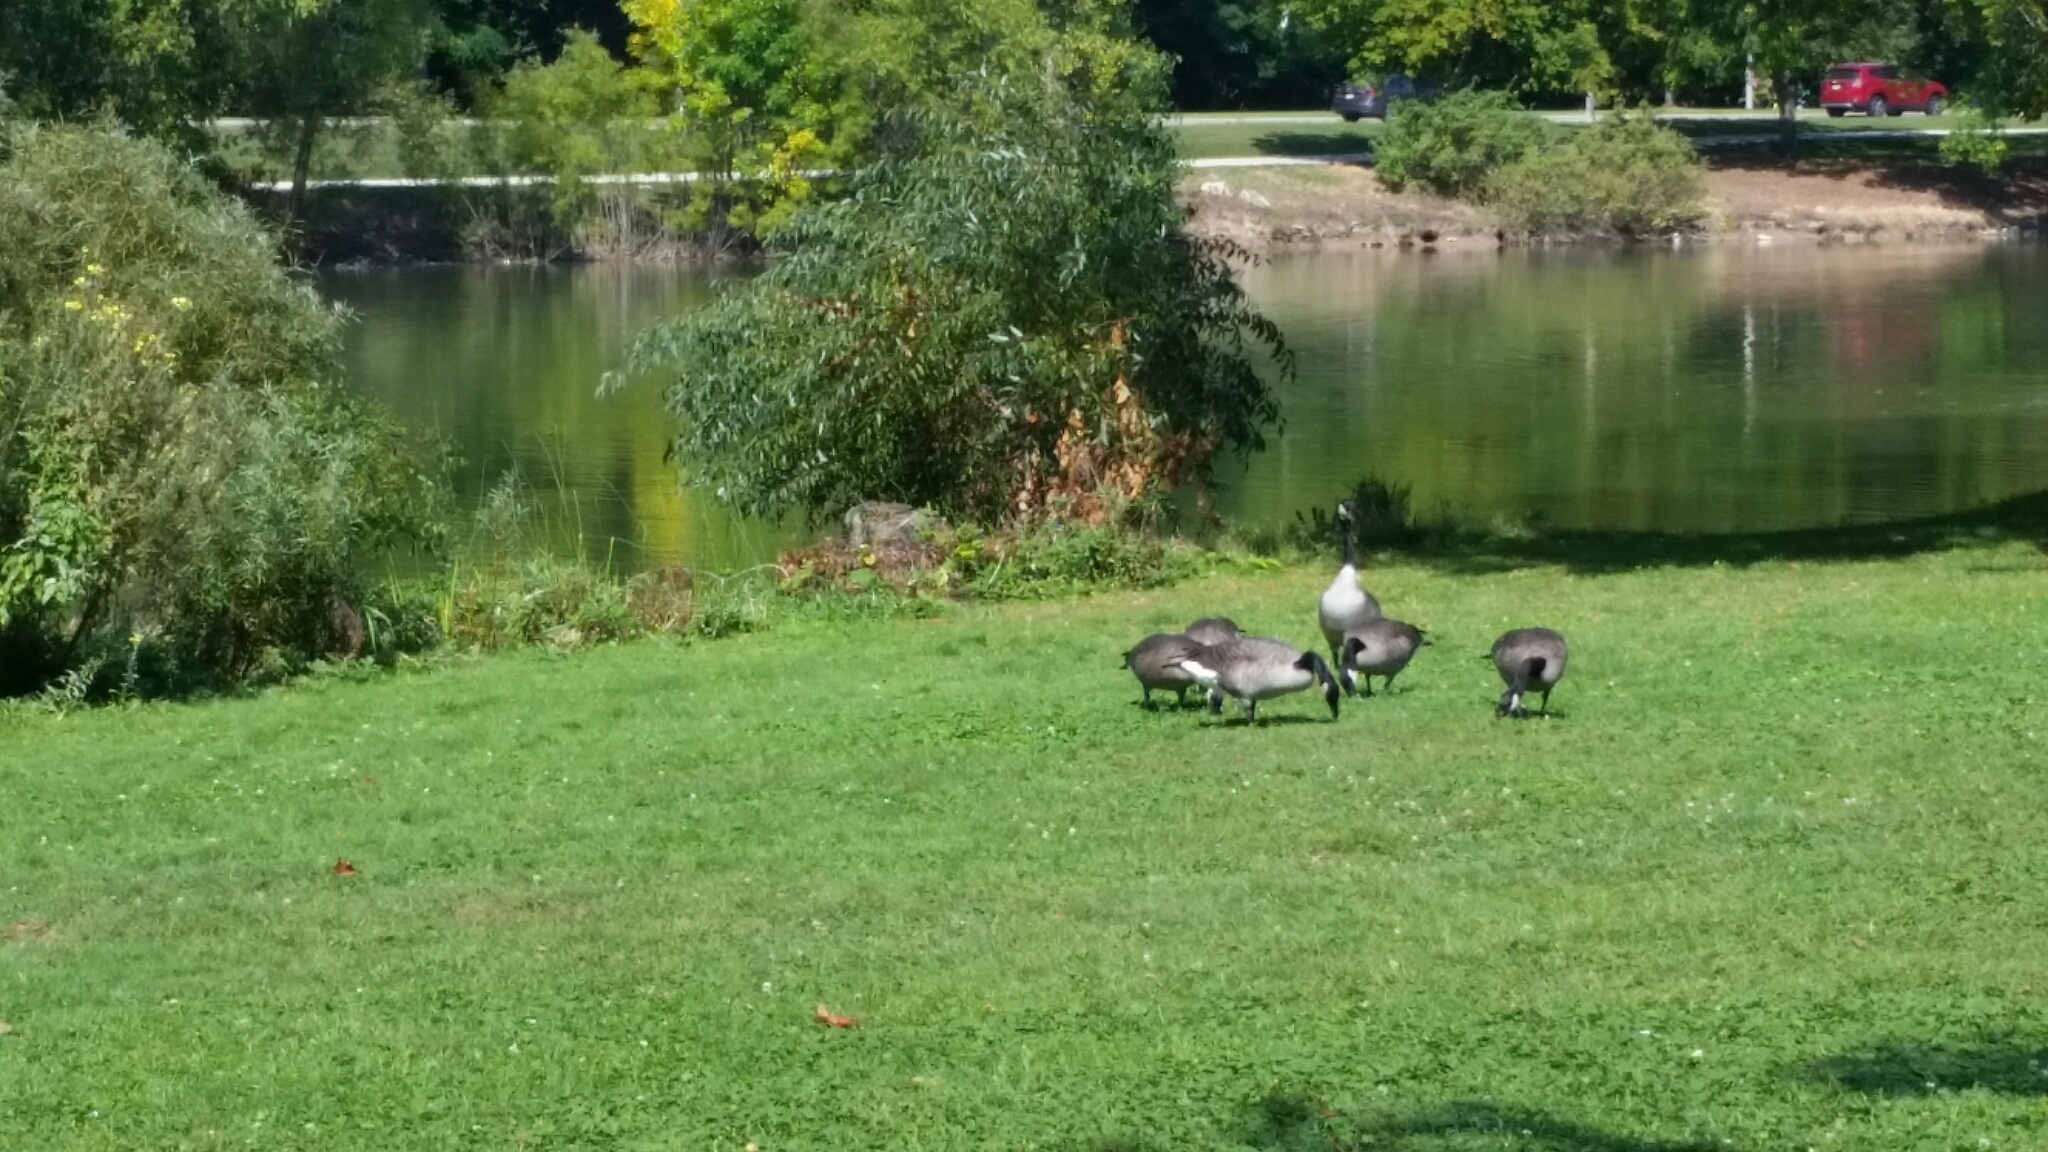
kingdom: Animalia
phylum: Chordata
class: Aves
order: Anseriformes
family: Anatidae
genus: Branta
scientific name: Branta canadensis
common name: Canada goose
